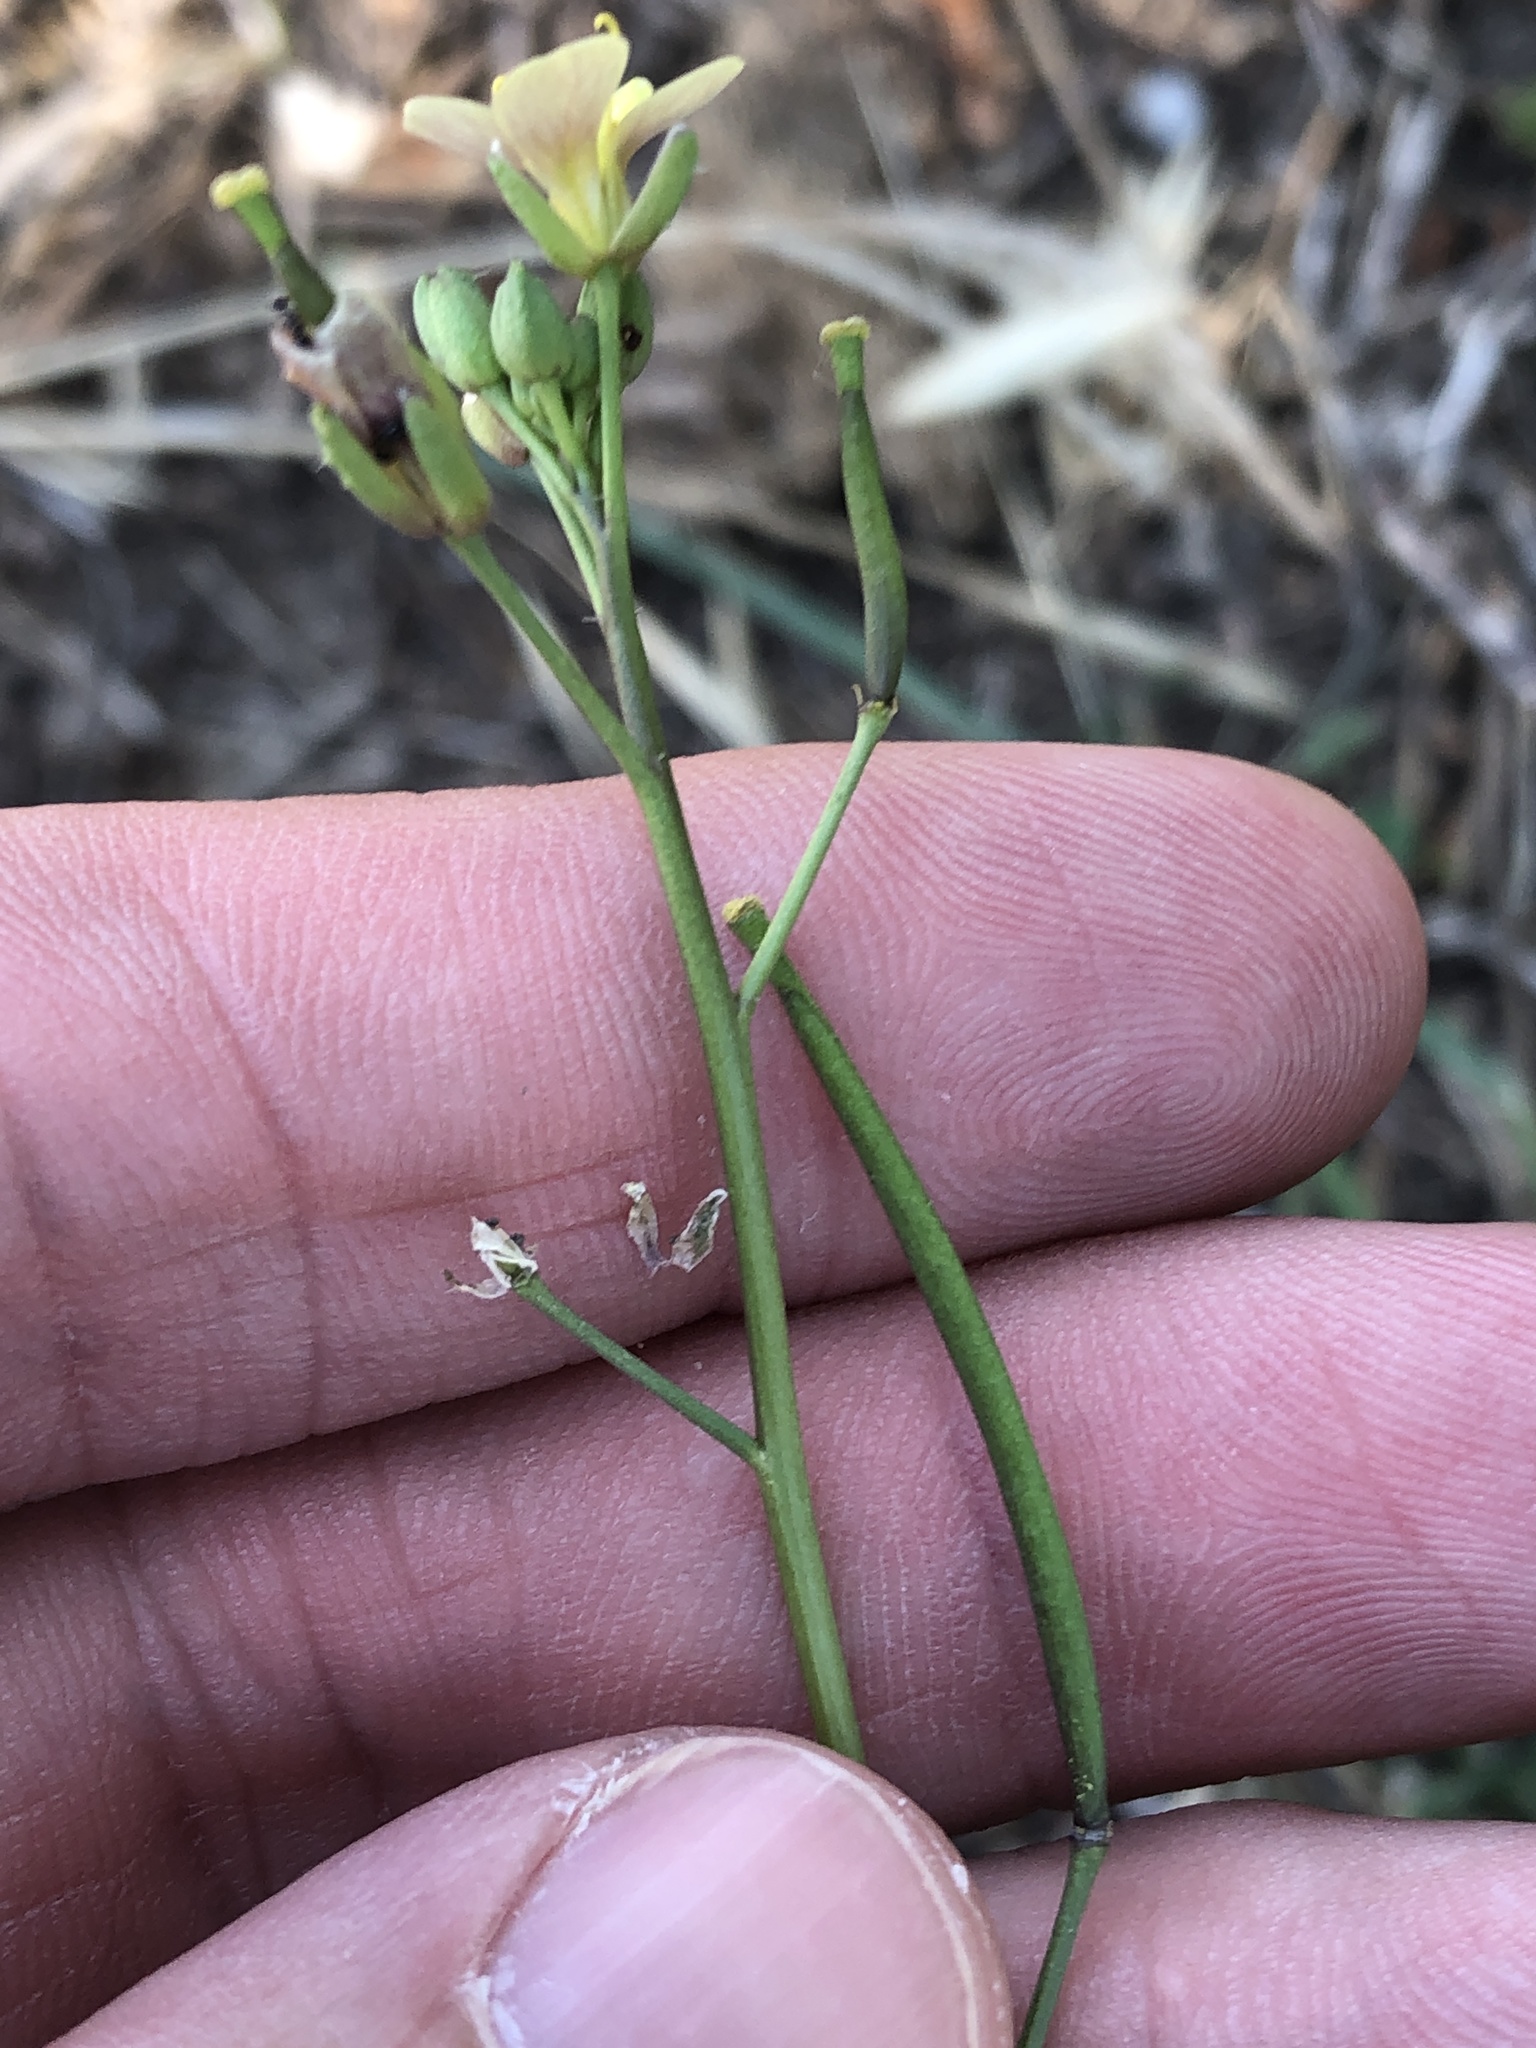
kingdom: Plantae
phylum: Tracheophyta
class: Magnoliopsida
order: Brassicales
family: Brassicaceae
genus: Diplotaxis
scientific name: Diplotaxis muralis
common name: Annual wall-rocket
